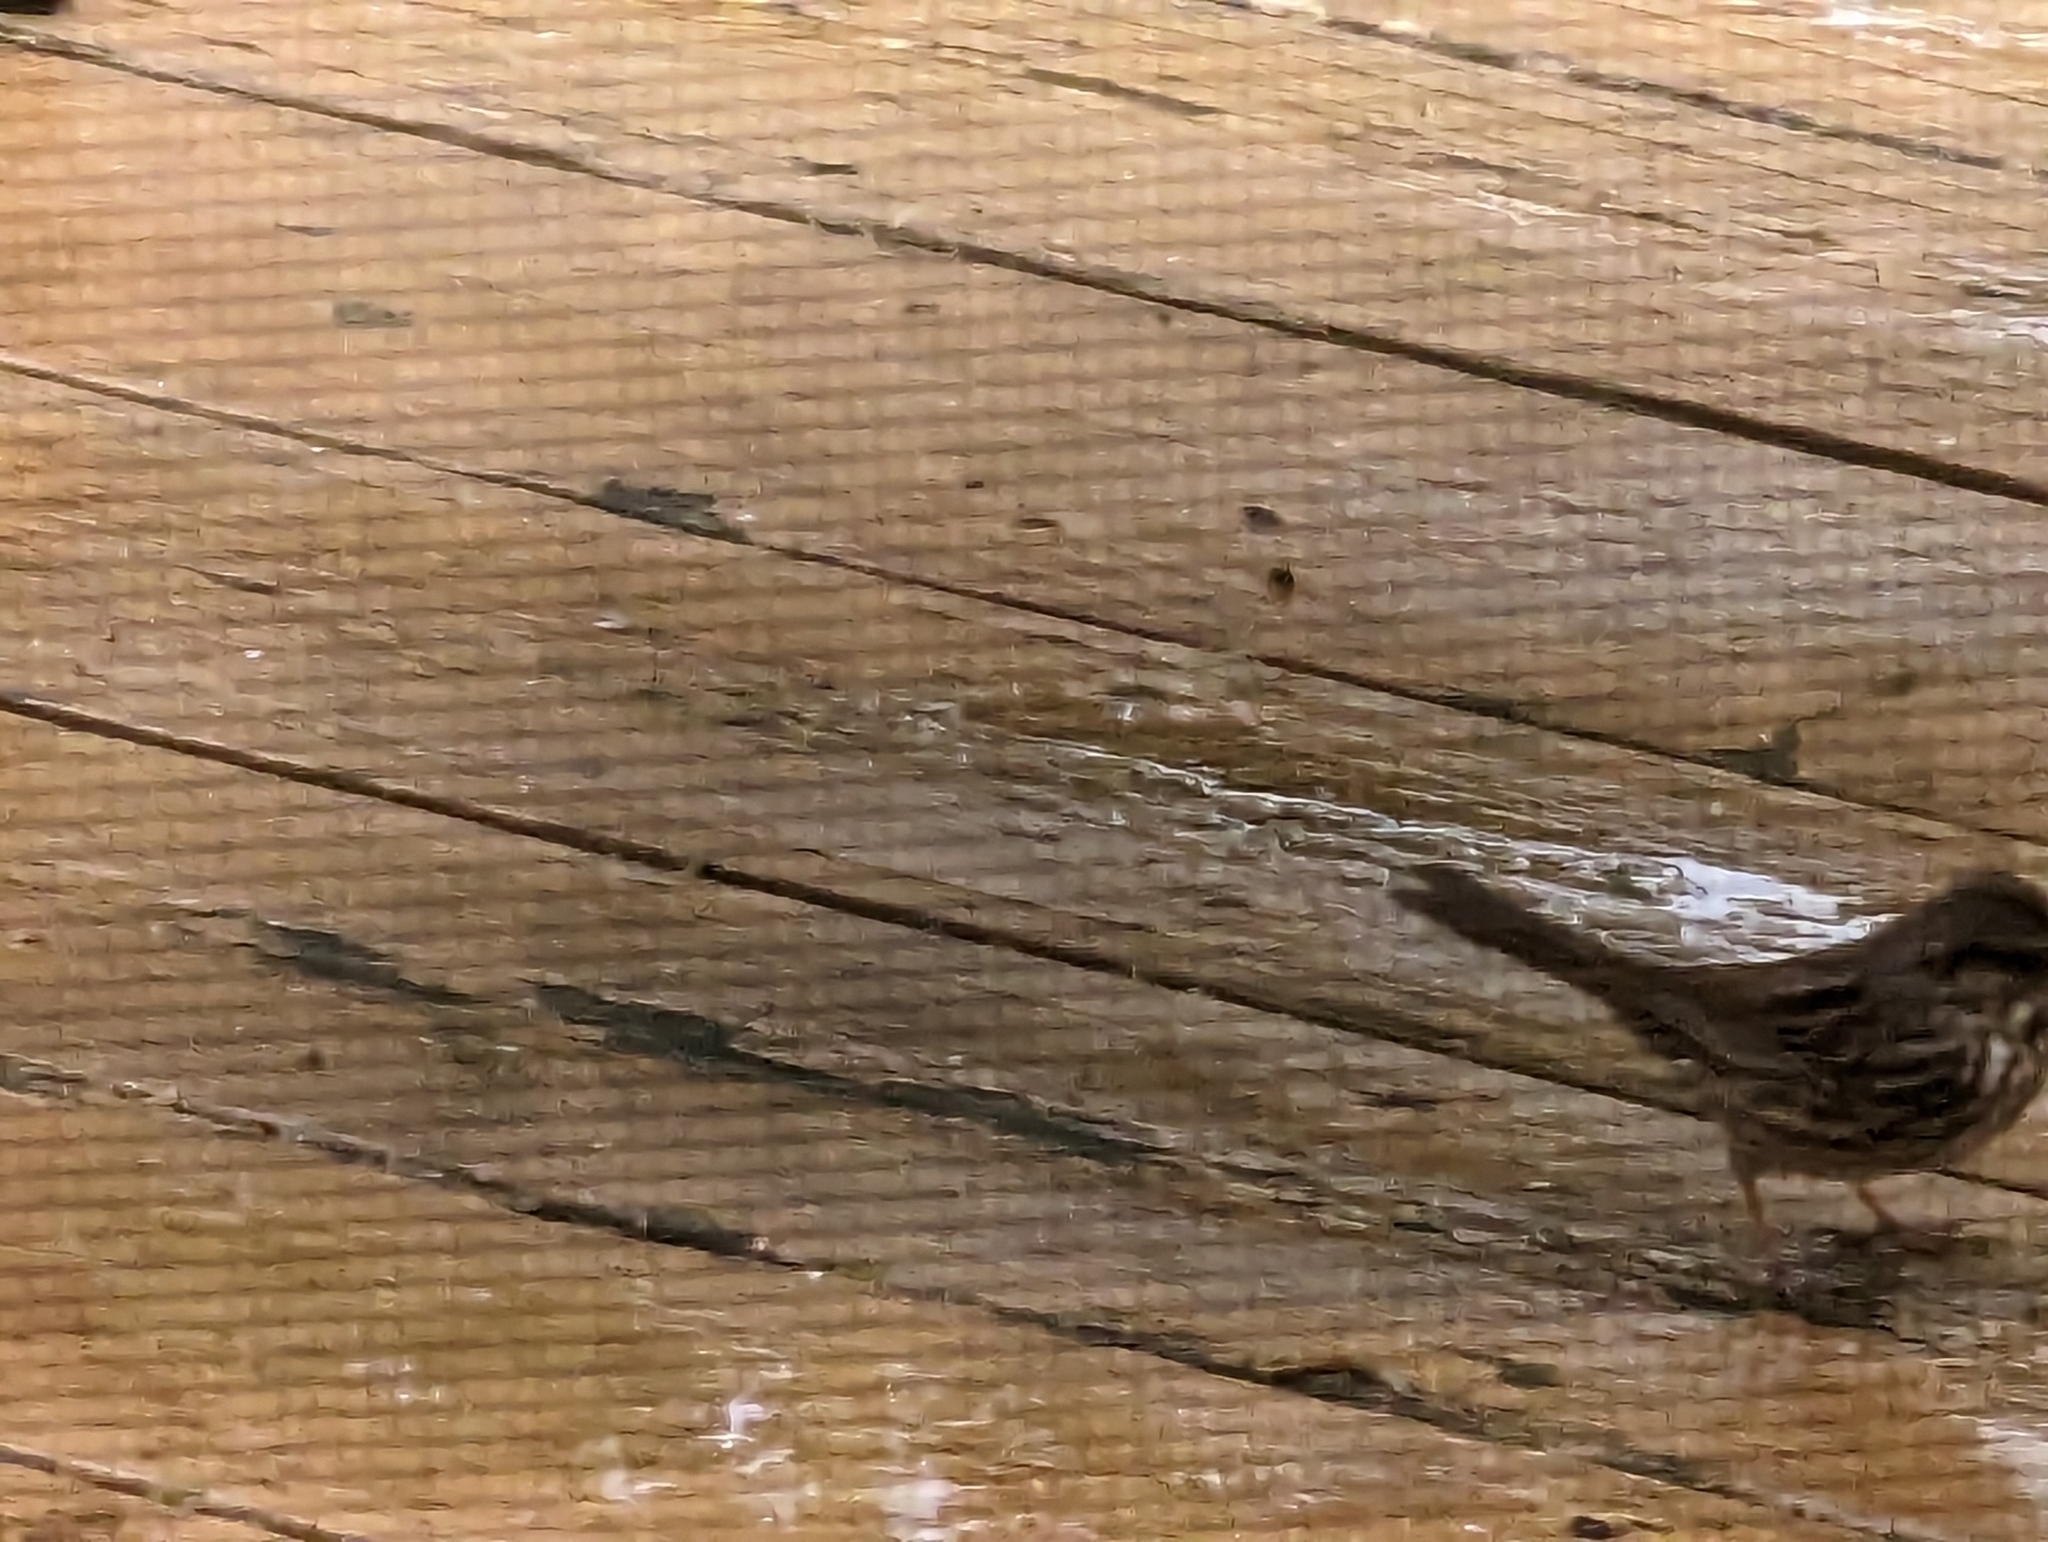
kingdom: Animalia
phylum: Chordata
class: Aves
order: Passeriformes
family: Passerellidae
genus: Melospiza
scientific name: Melospiza melodia
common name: Song sparrow
